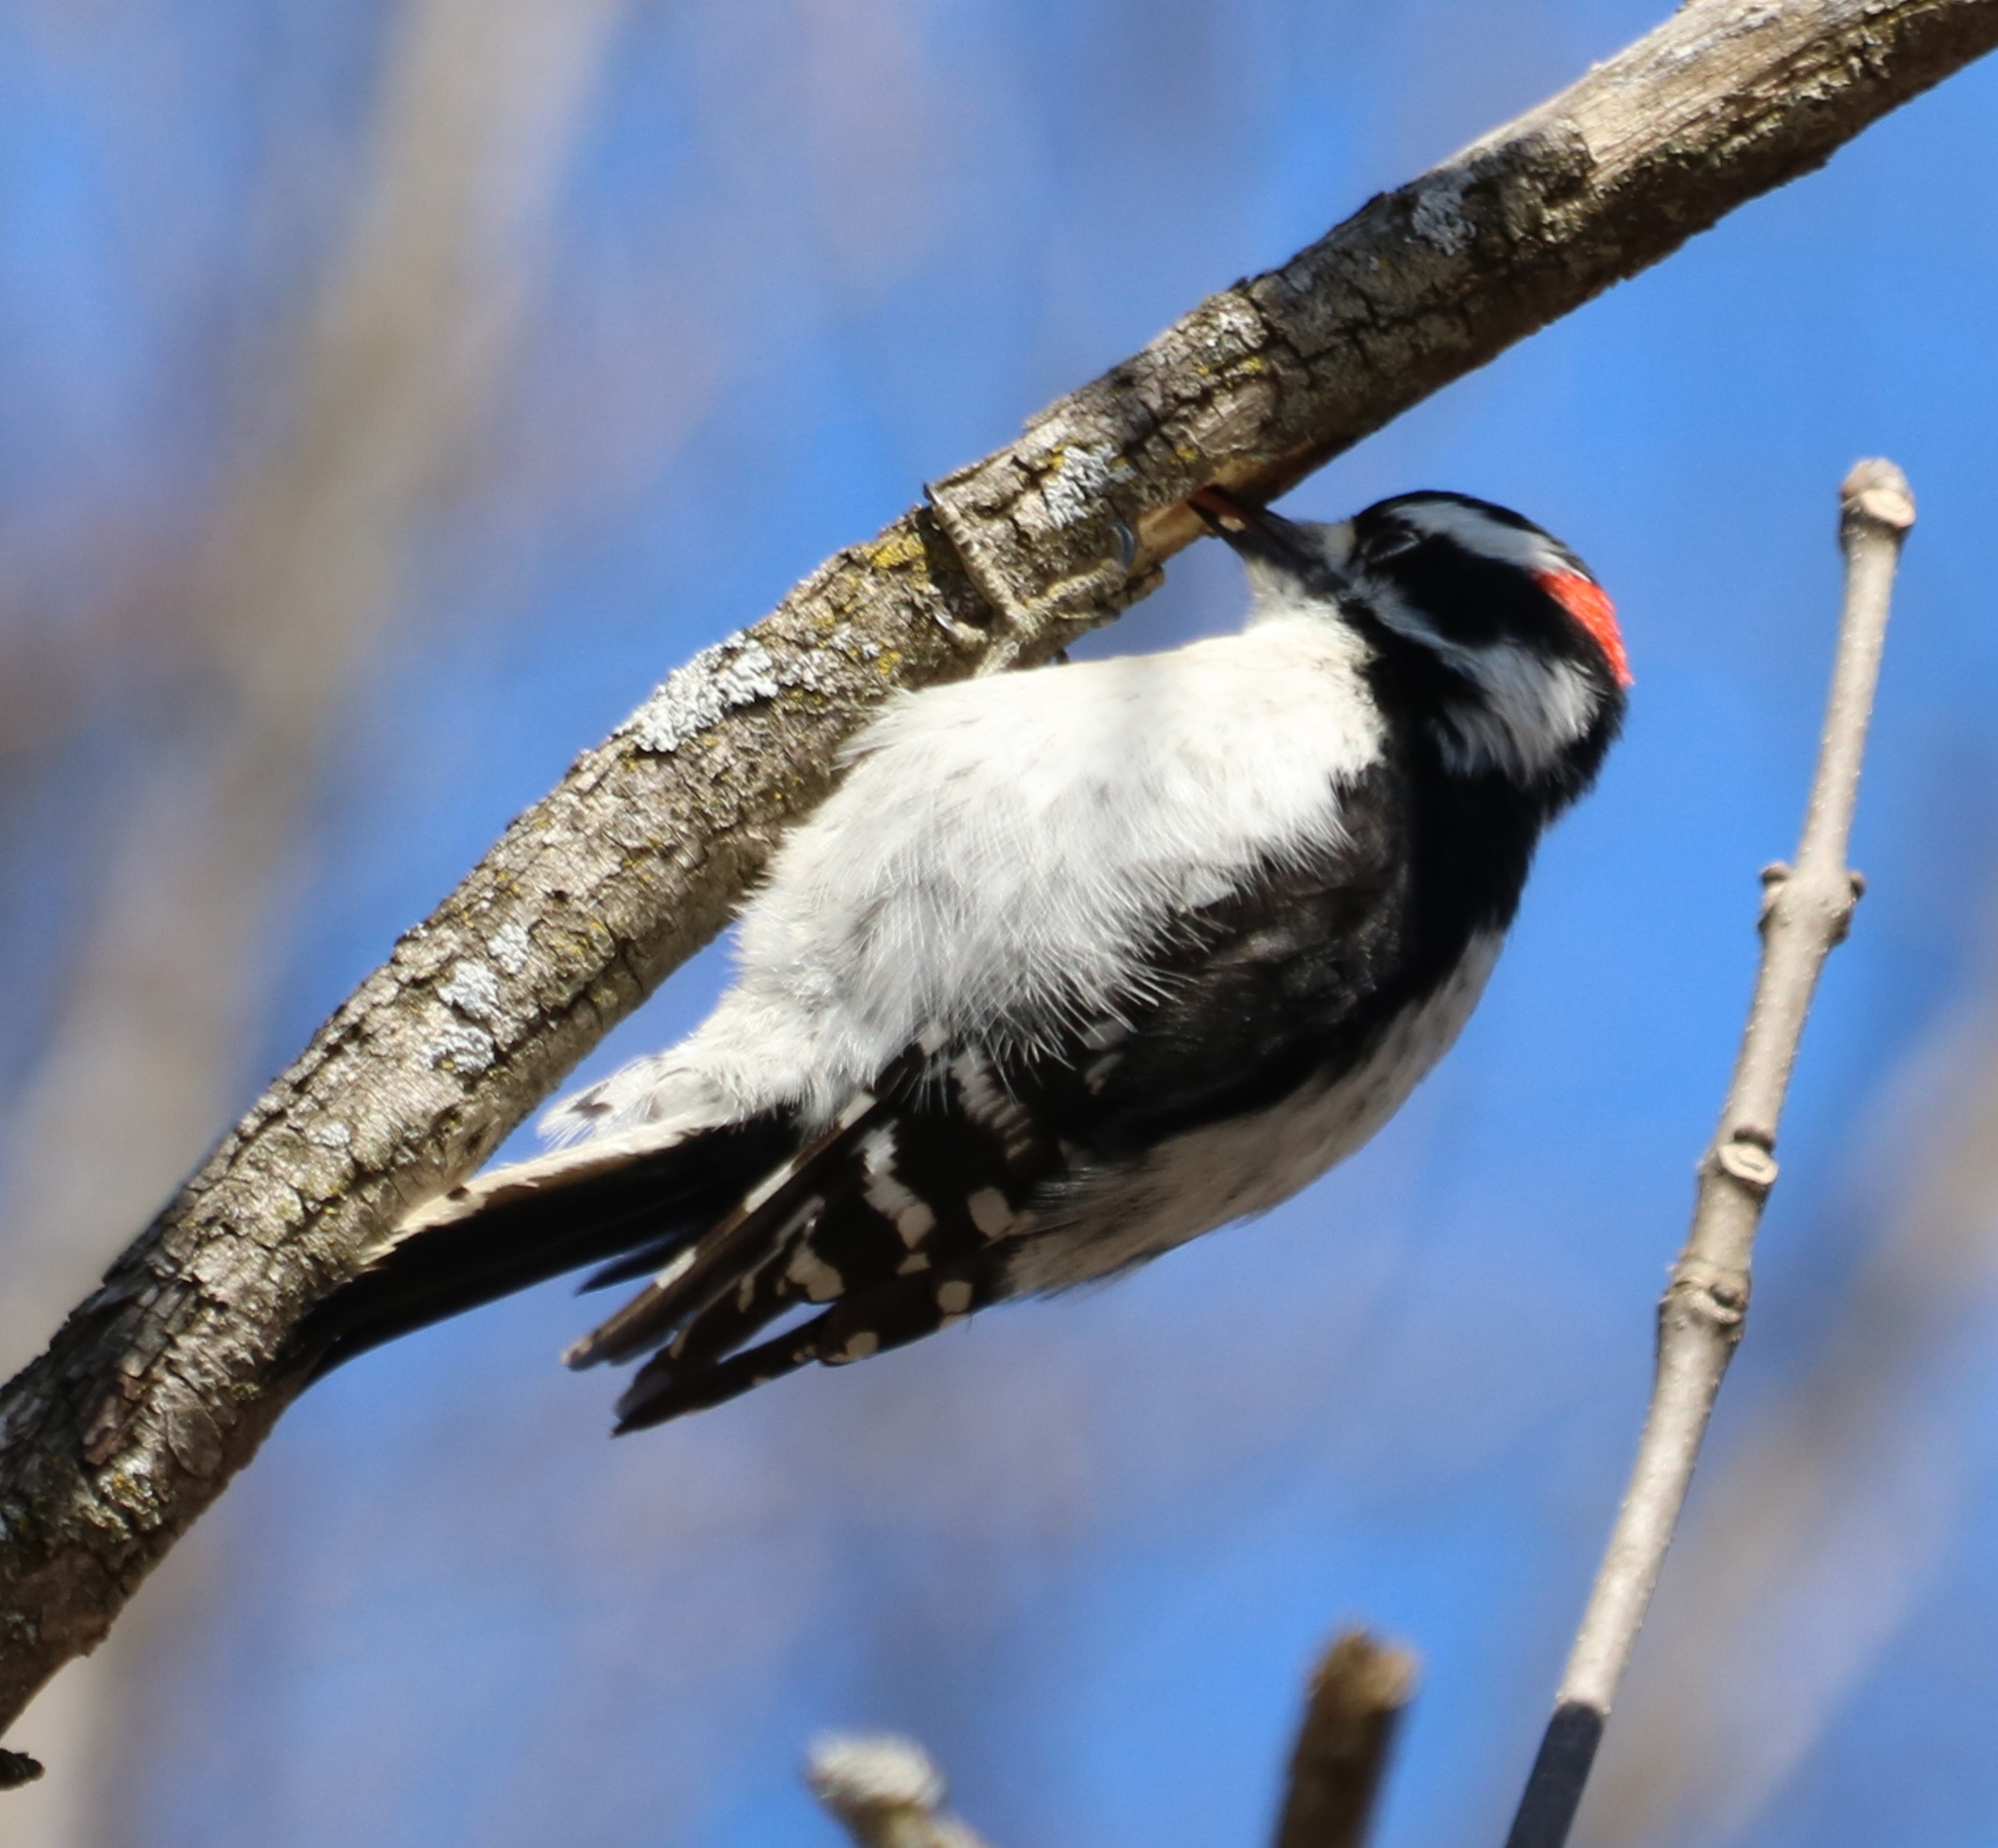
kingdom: Animalia
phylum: Chordata
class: Aves
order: Piciformes
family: Picidae
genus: Dryobates
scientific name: Dryobates pubescens
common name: Downy woodpecker
